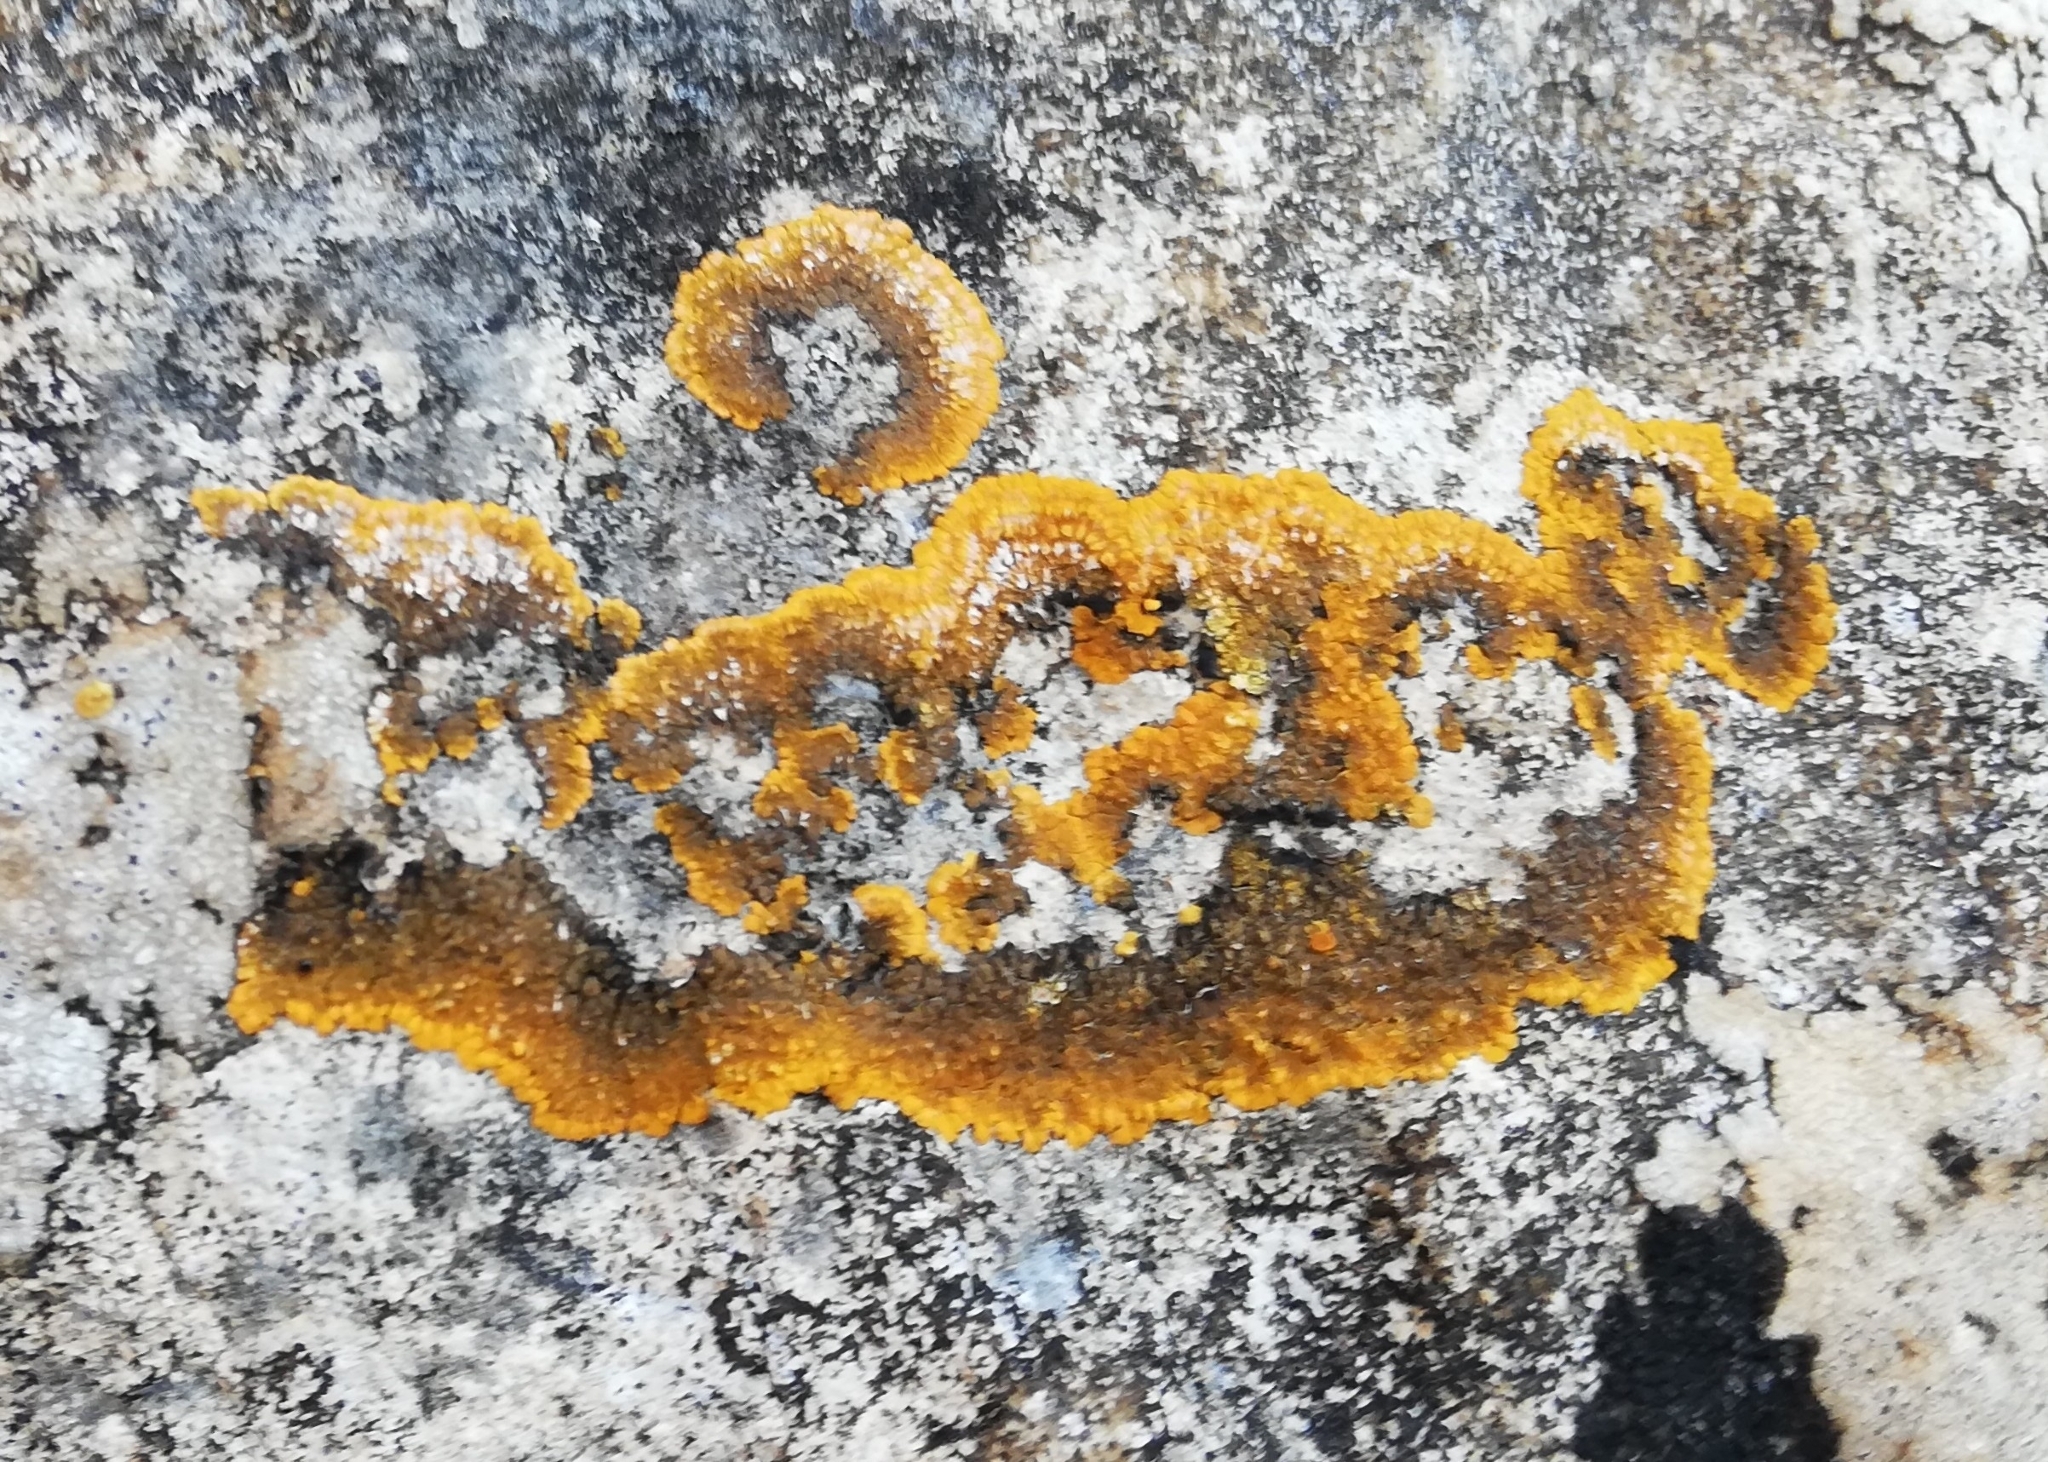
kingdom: Fungi
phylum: Ascomycota
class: Lecanoromycetes
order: Teloschistales
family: Teloschistaceae
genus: Variospora
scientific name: Variospora aurantia
